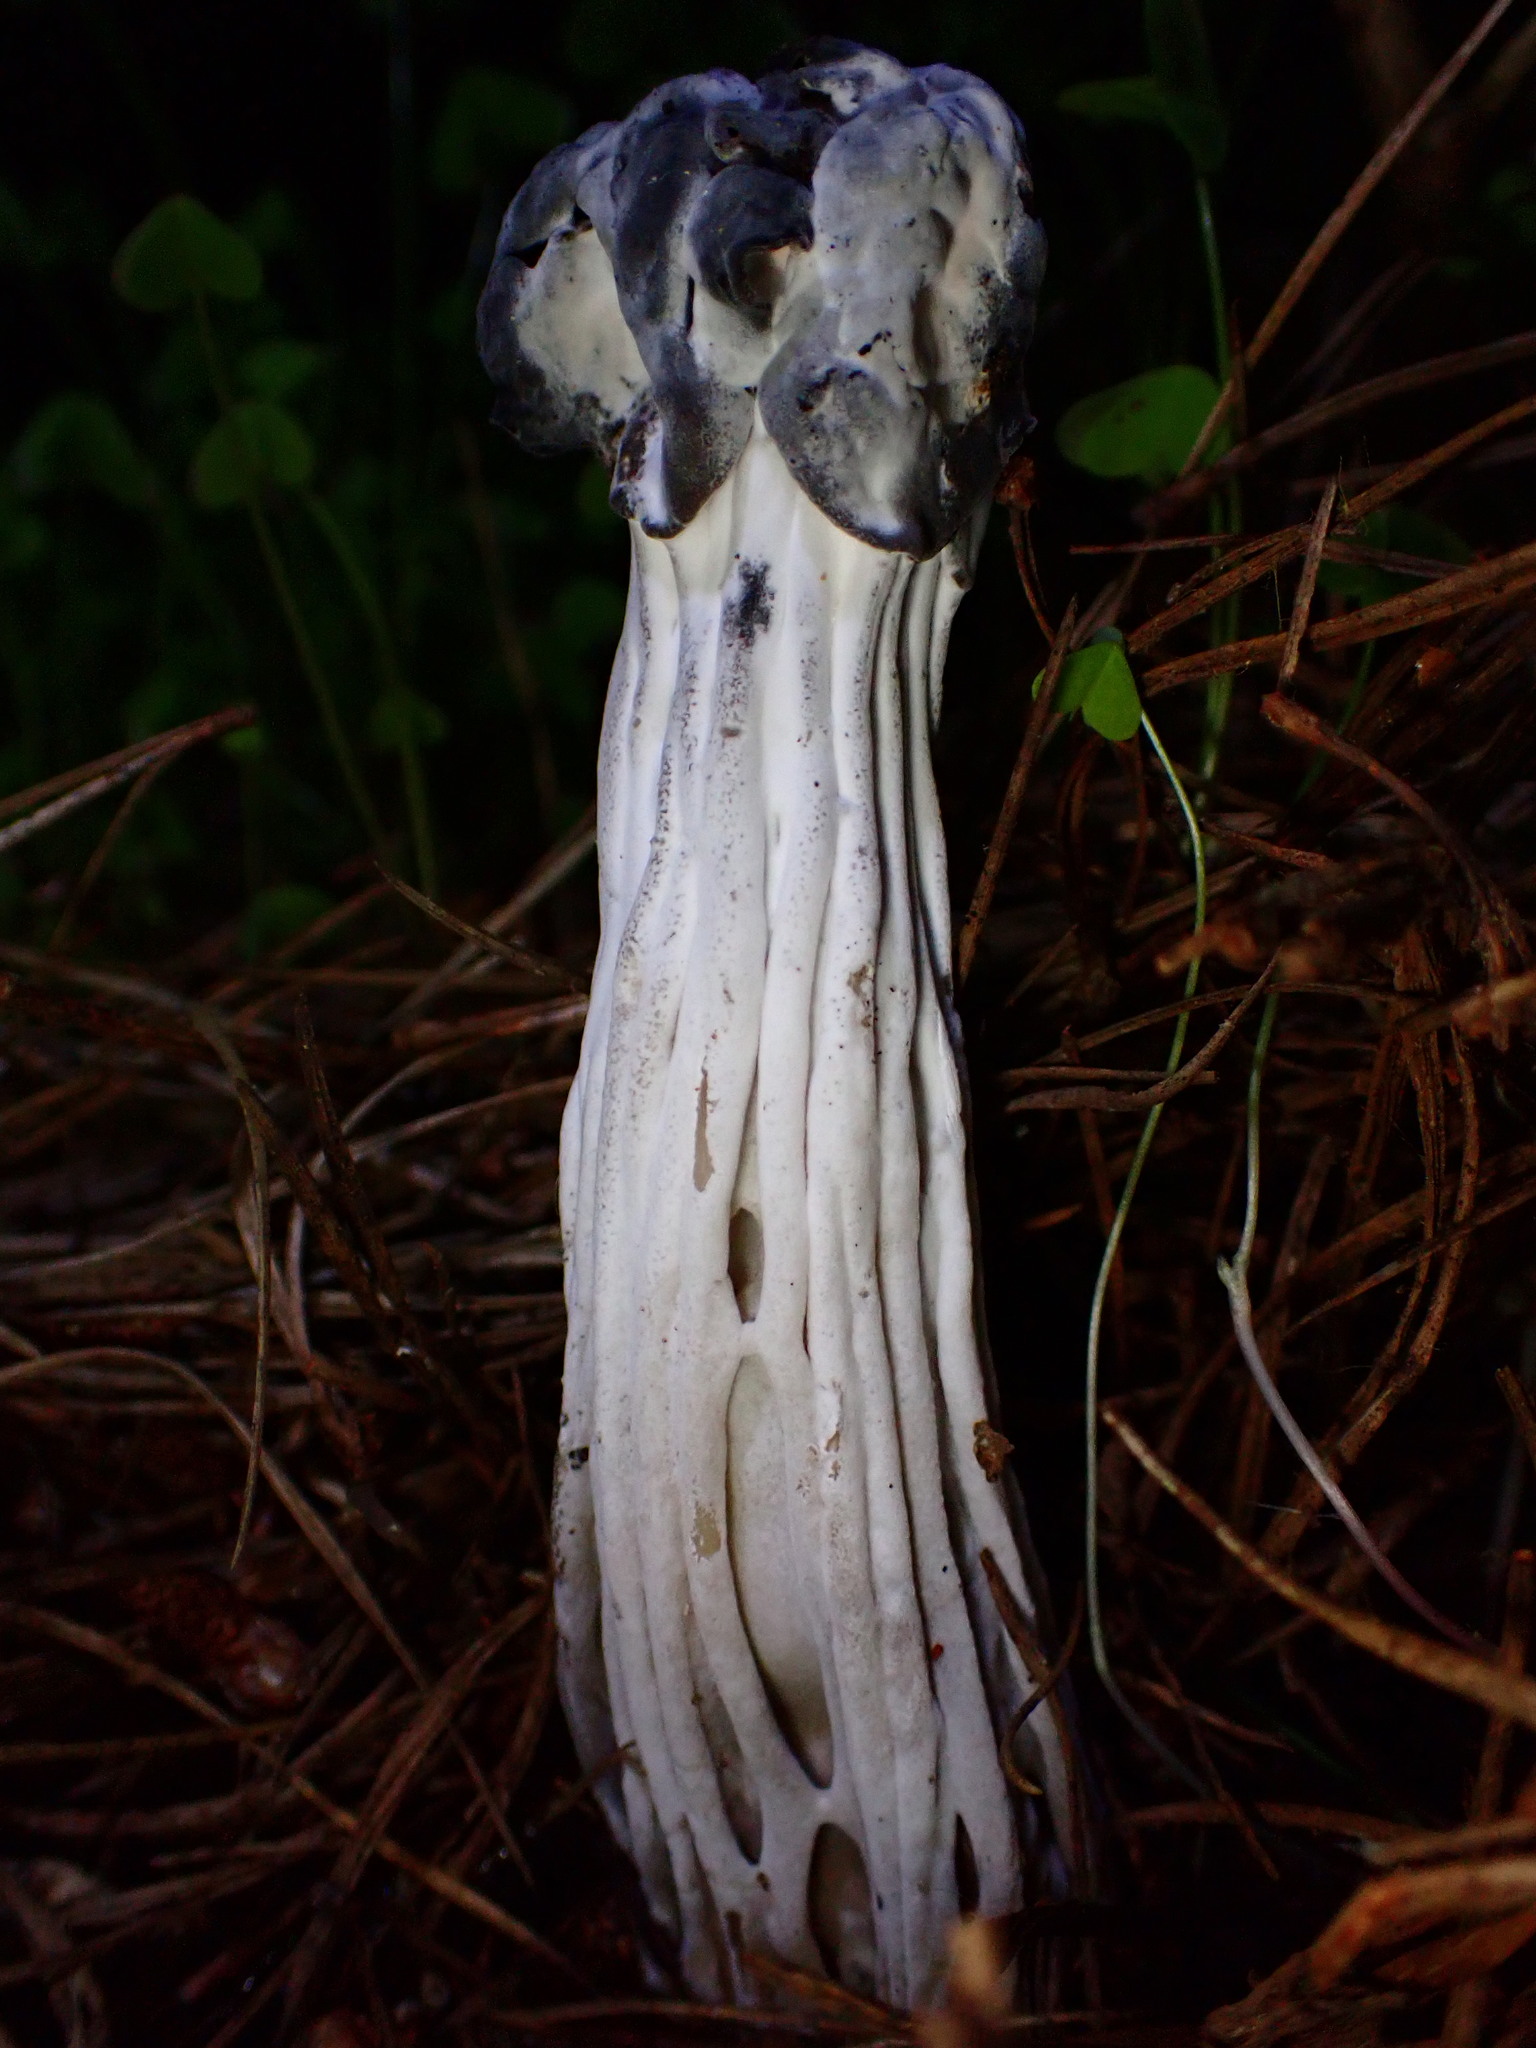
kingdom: Fungi
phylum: Ascomycota
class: Pezizomycetes
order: Pezizales
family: Helvellaceae
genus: Helvella
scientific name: Helvella vespertina
